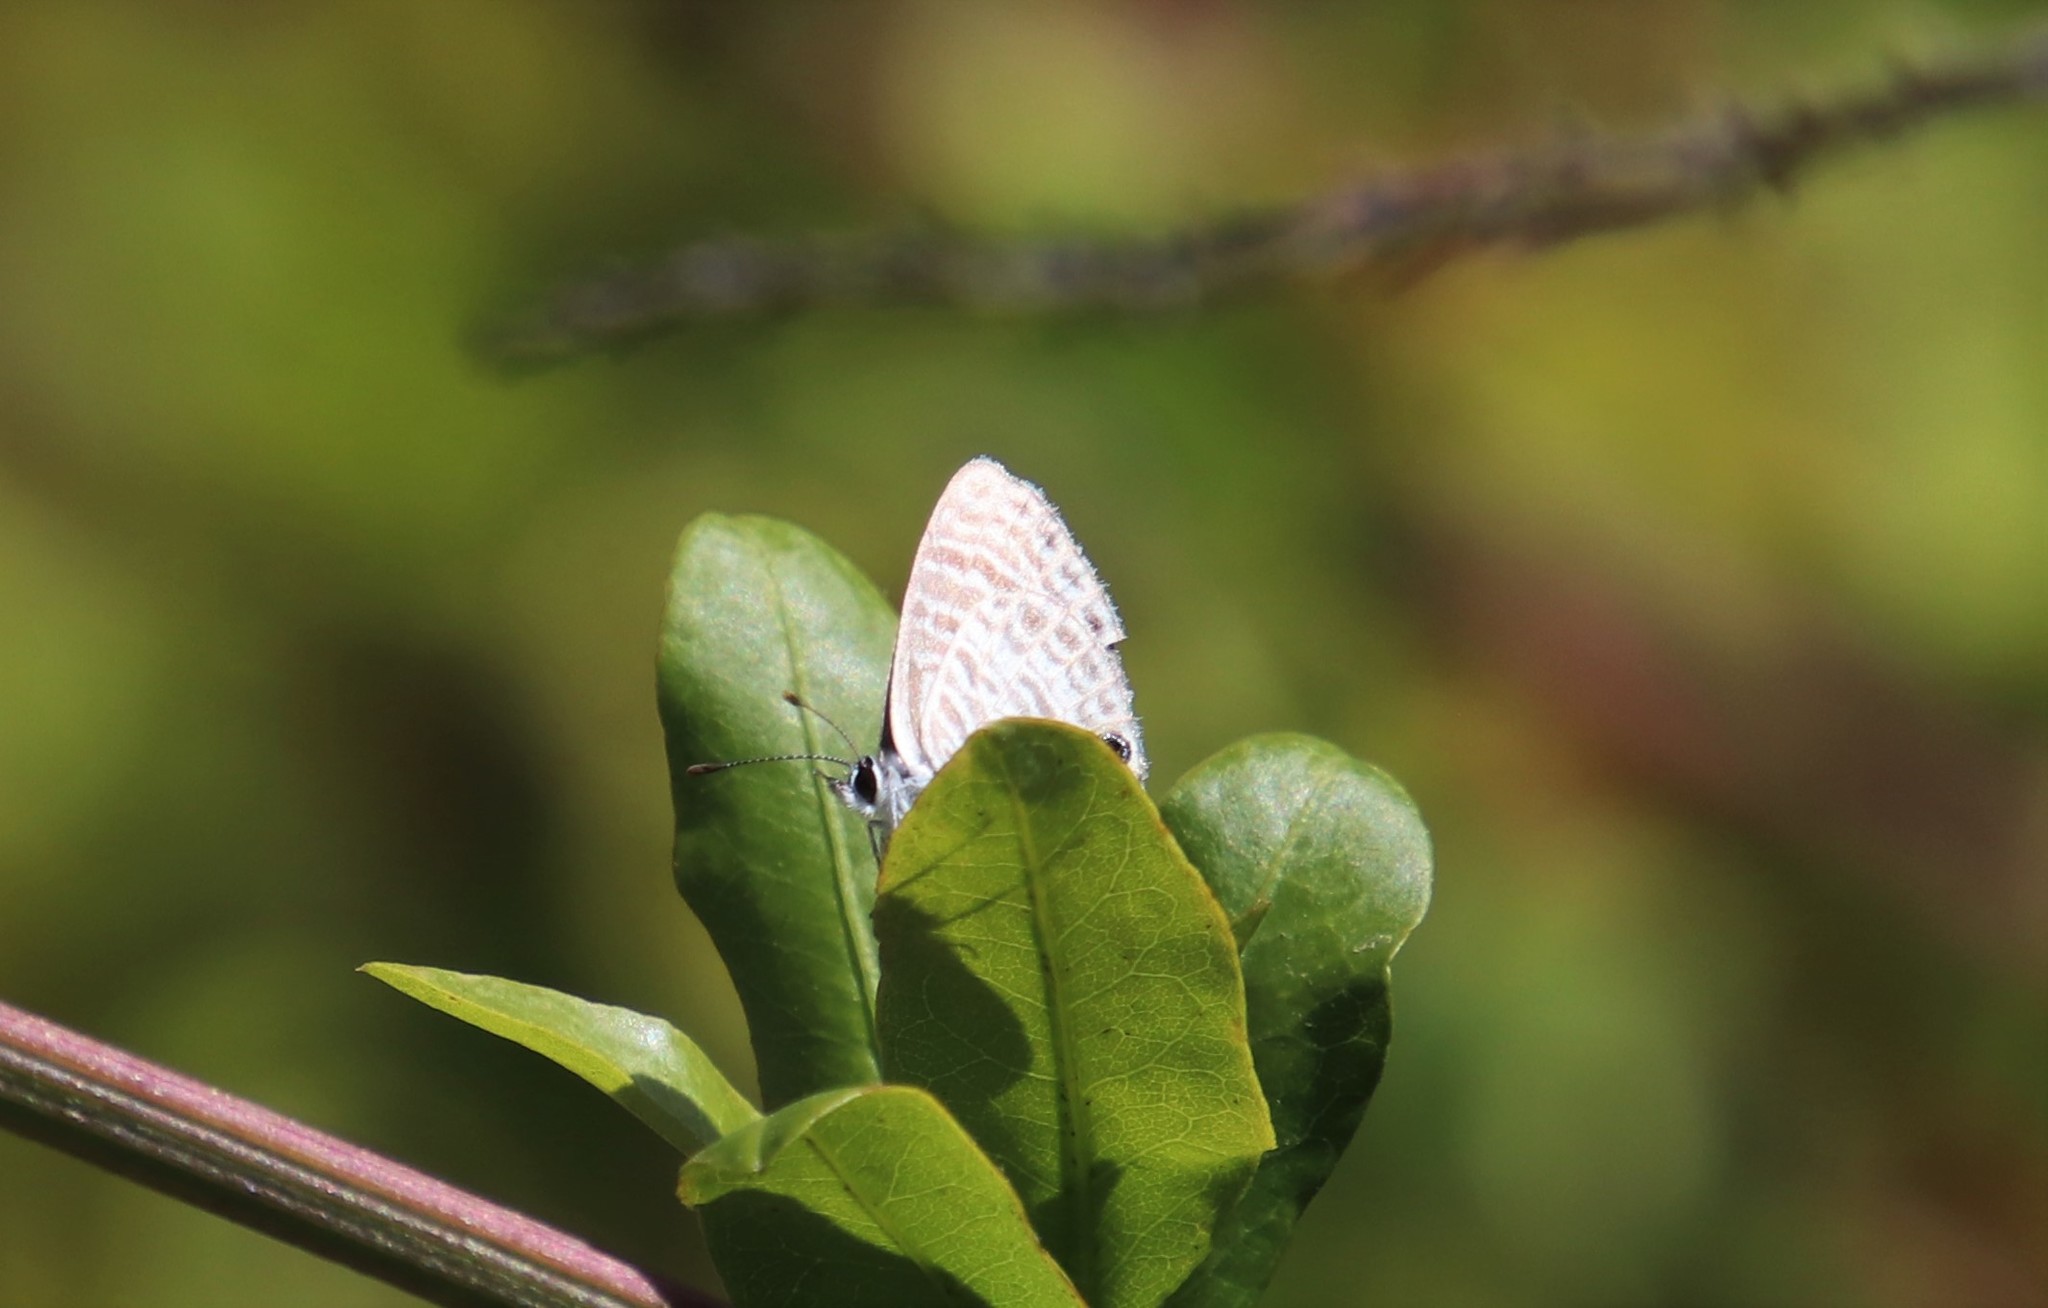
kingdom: Animalia
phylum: Arthropoda
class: Insecta
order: Lepidoptera
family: Lycaenidae
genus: Leptotes
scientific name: Leptotes marina
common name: Marine blue
